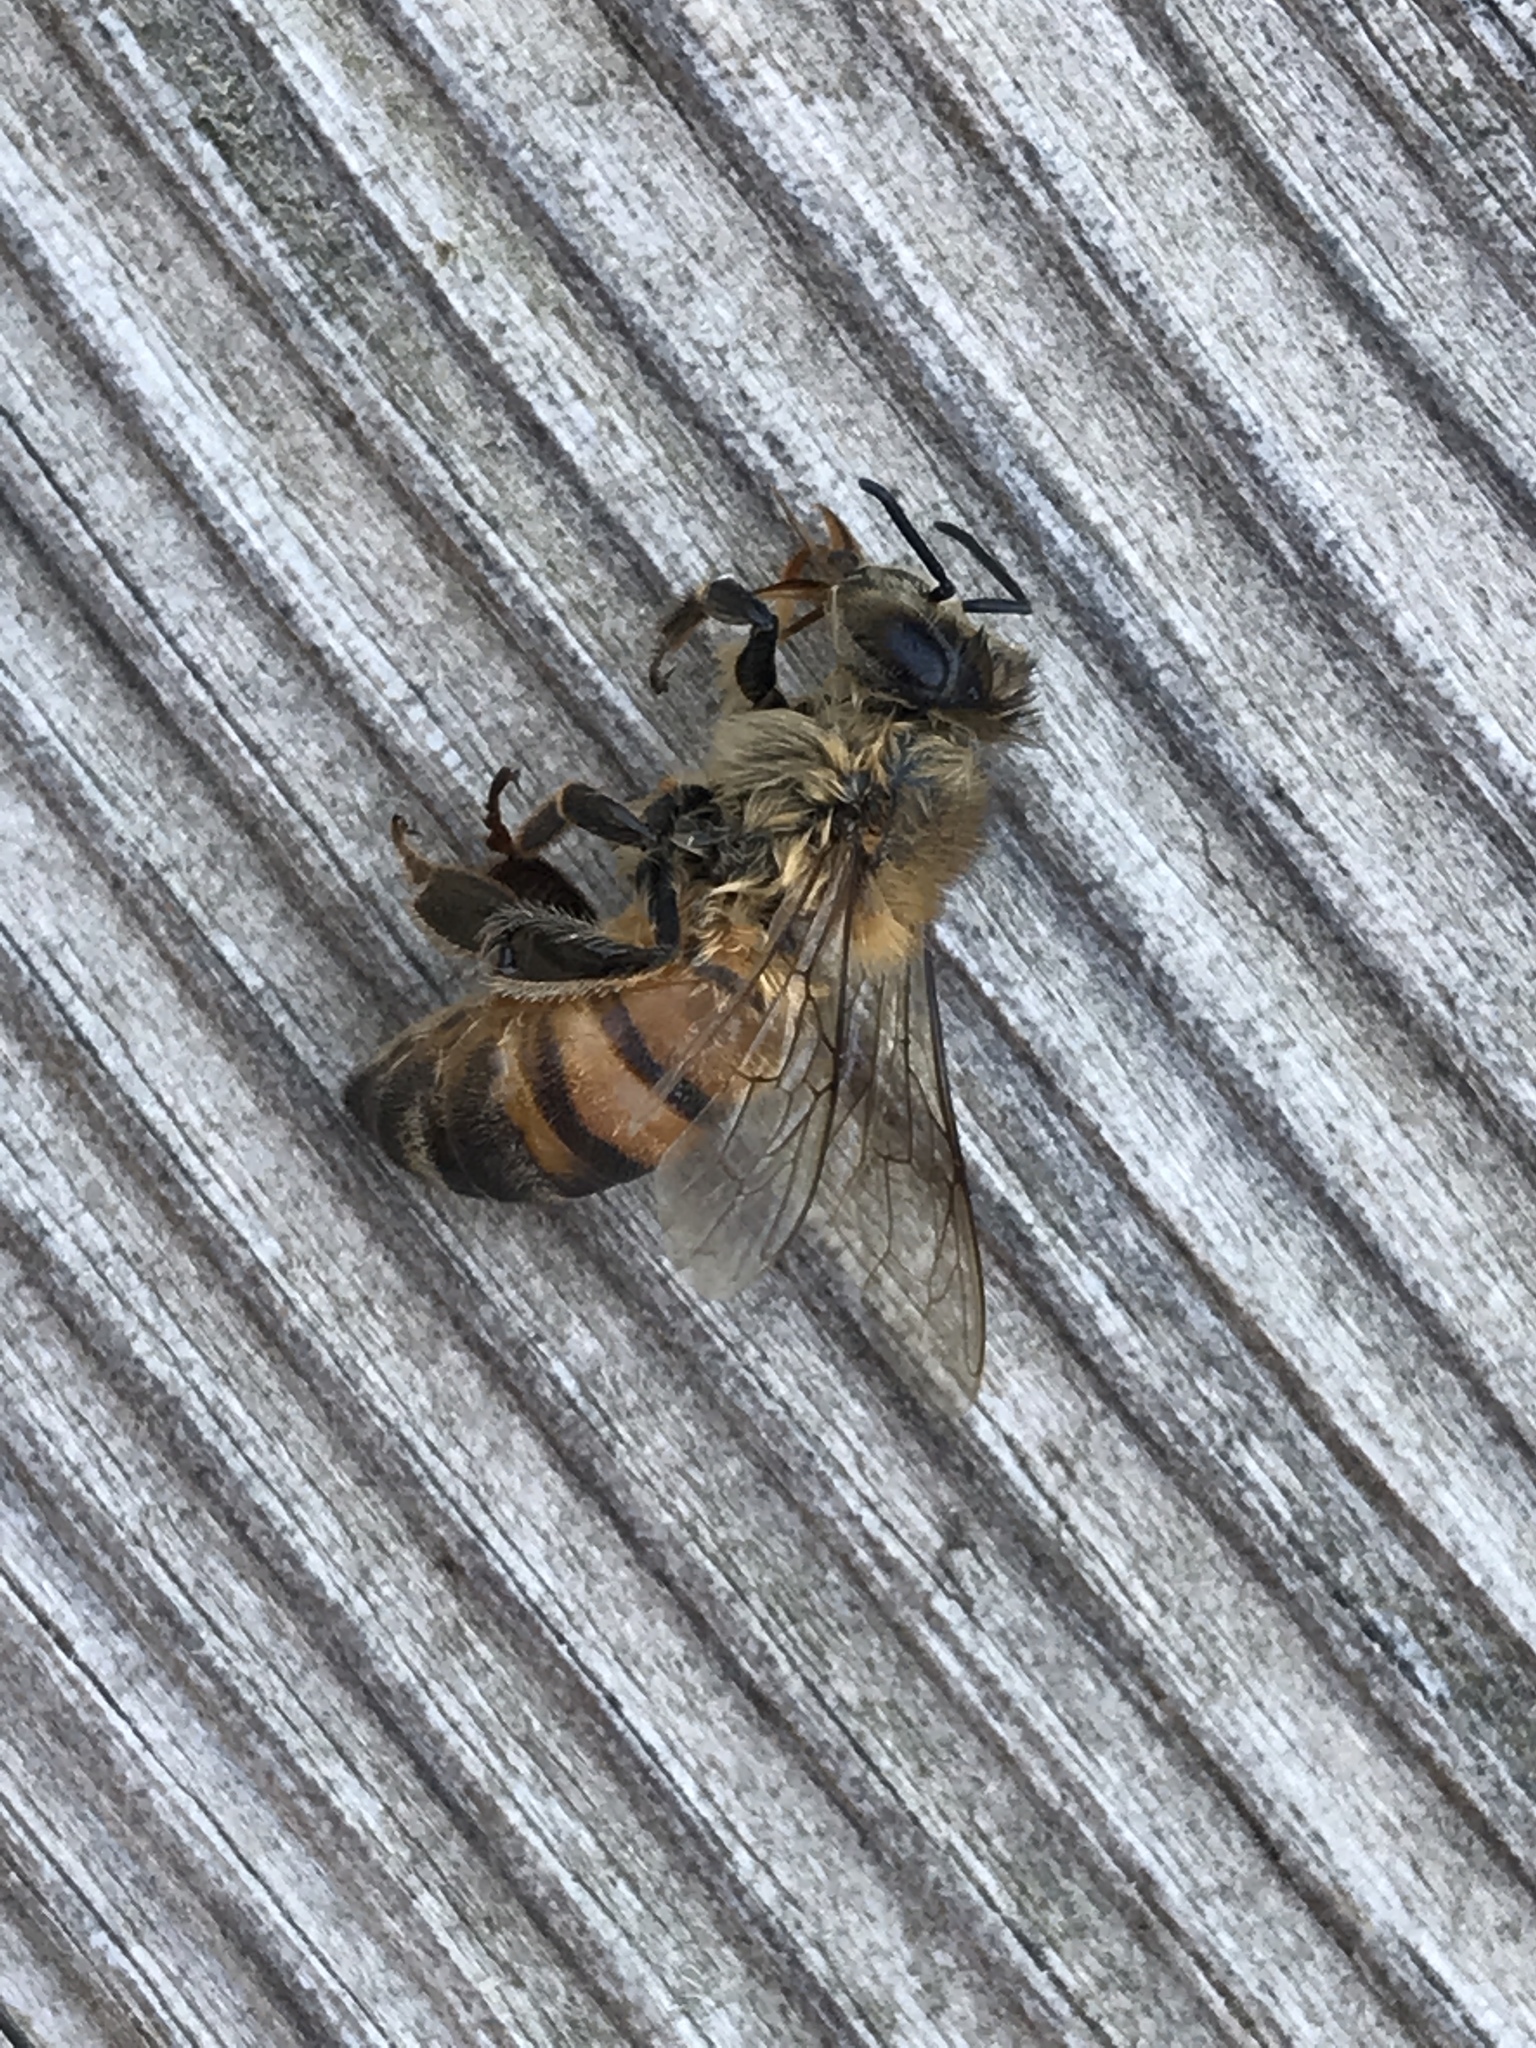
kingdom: Animalia
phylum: Arthropoda
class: Insecta
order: Hymenoptera
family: Apidae
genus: Apis
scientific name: Apis mellifera
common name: Honey bee
